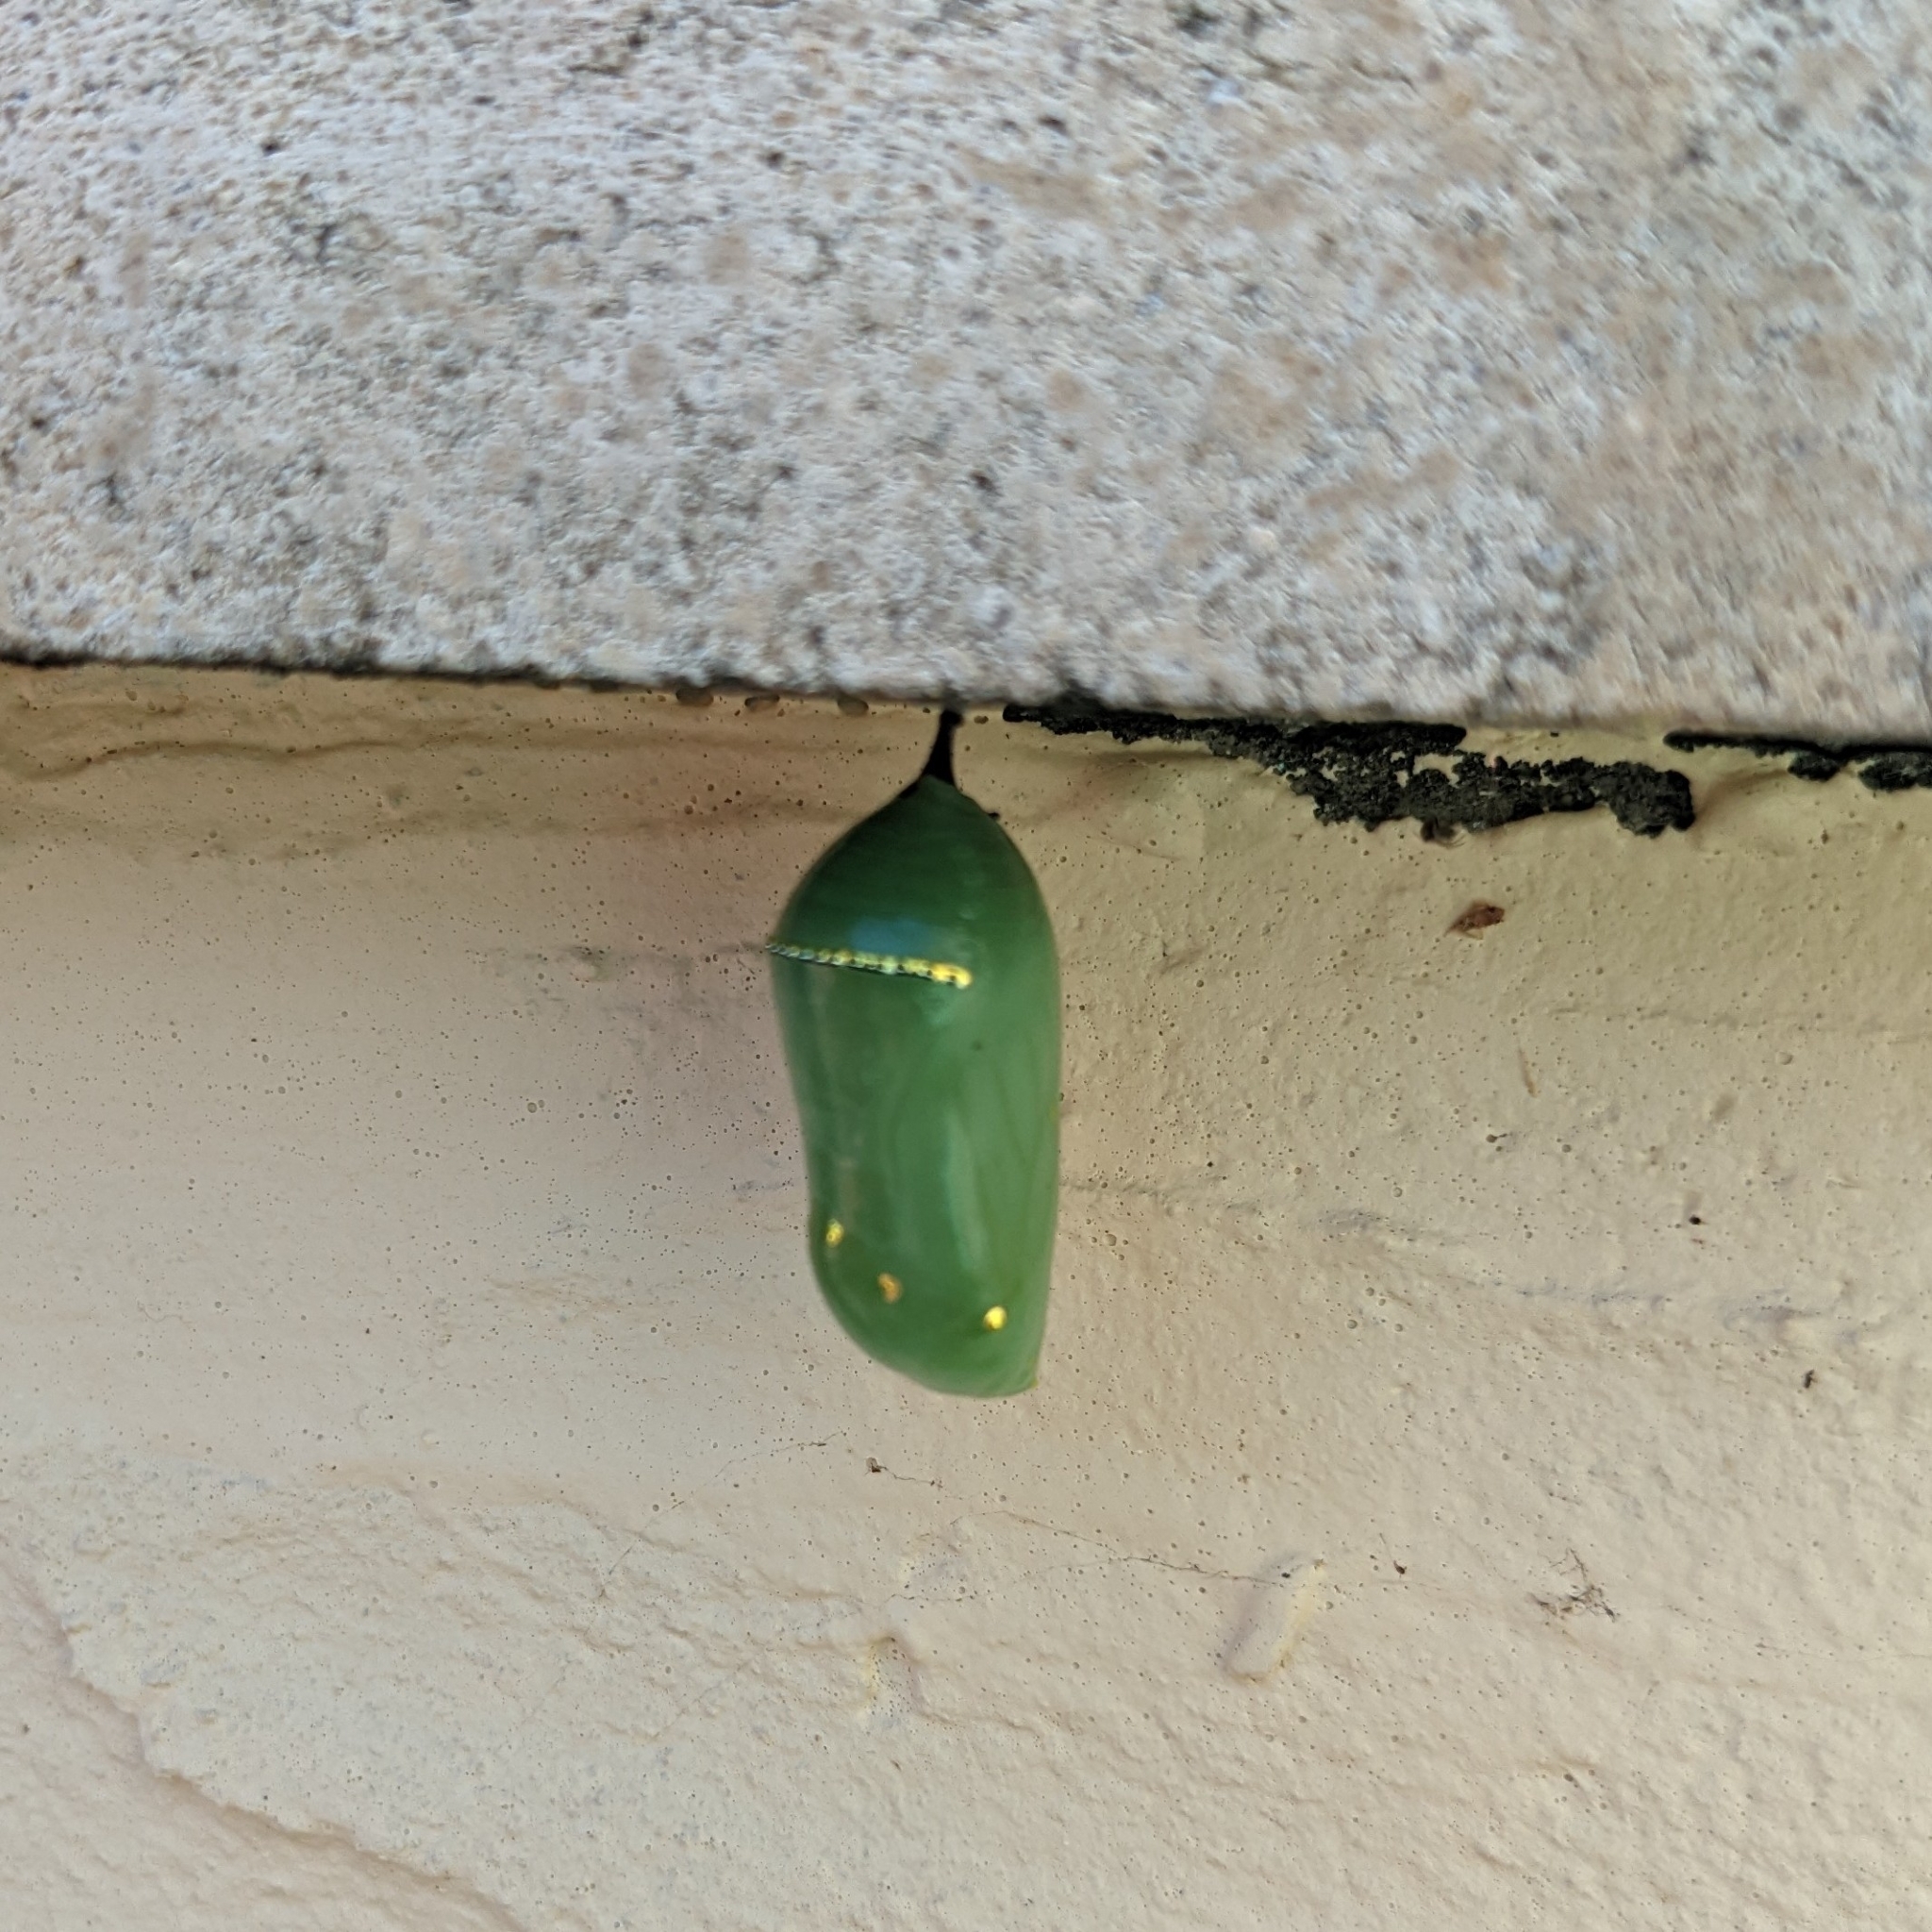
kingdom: Animalia
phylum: Arthropoda
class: Insecta
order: Lepidoptera
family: Nymphalidae
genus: Danaus
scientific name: Danaus plexippus
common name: Monarch
